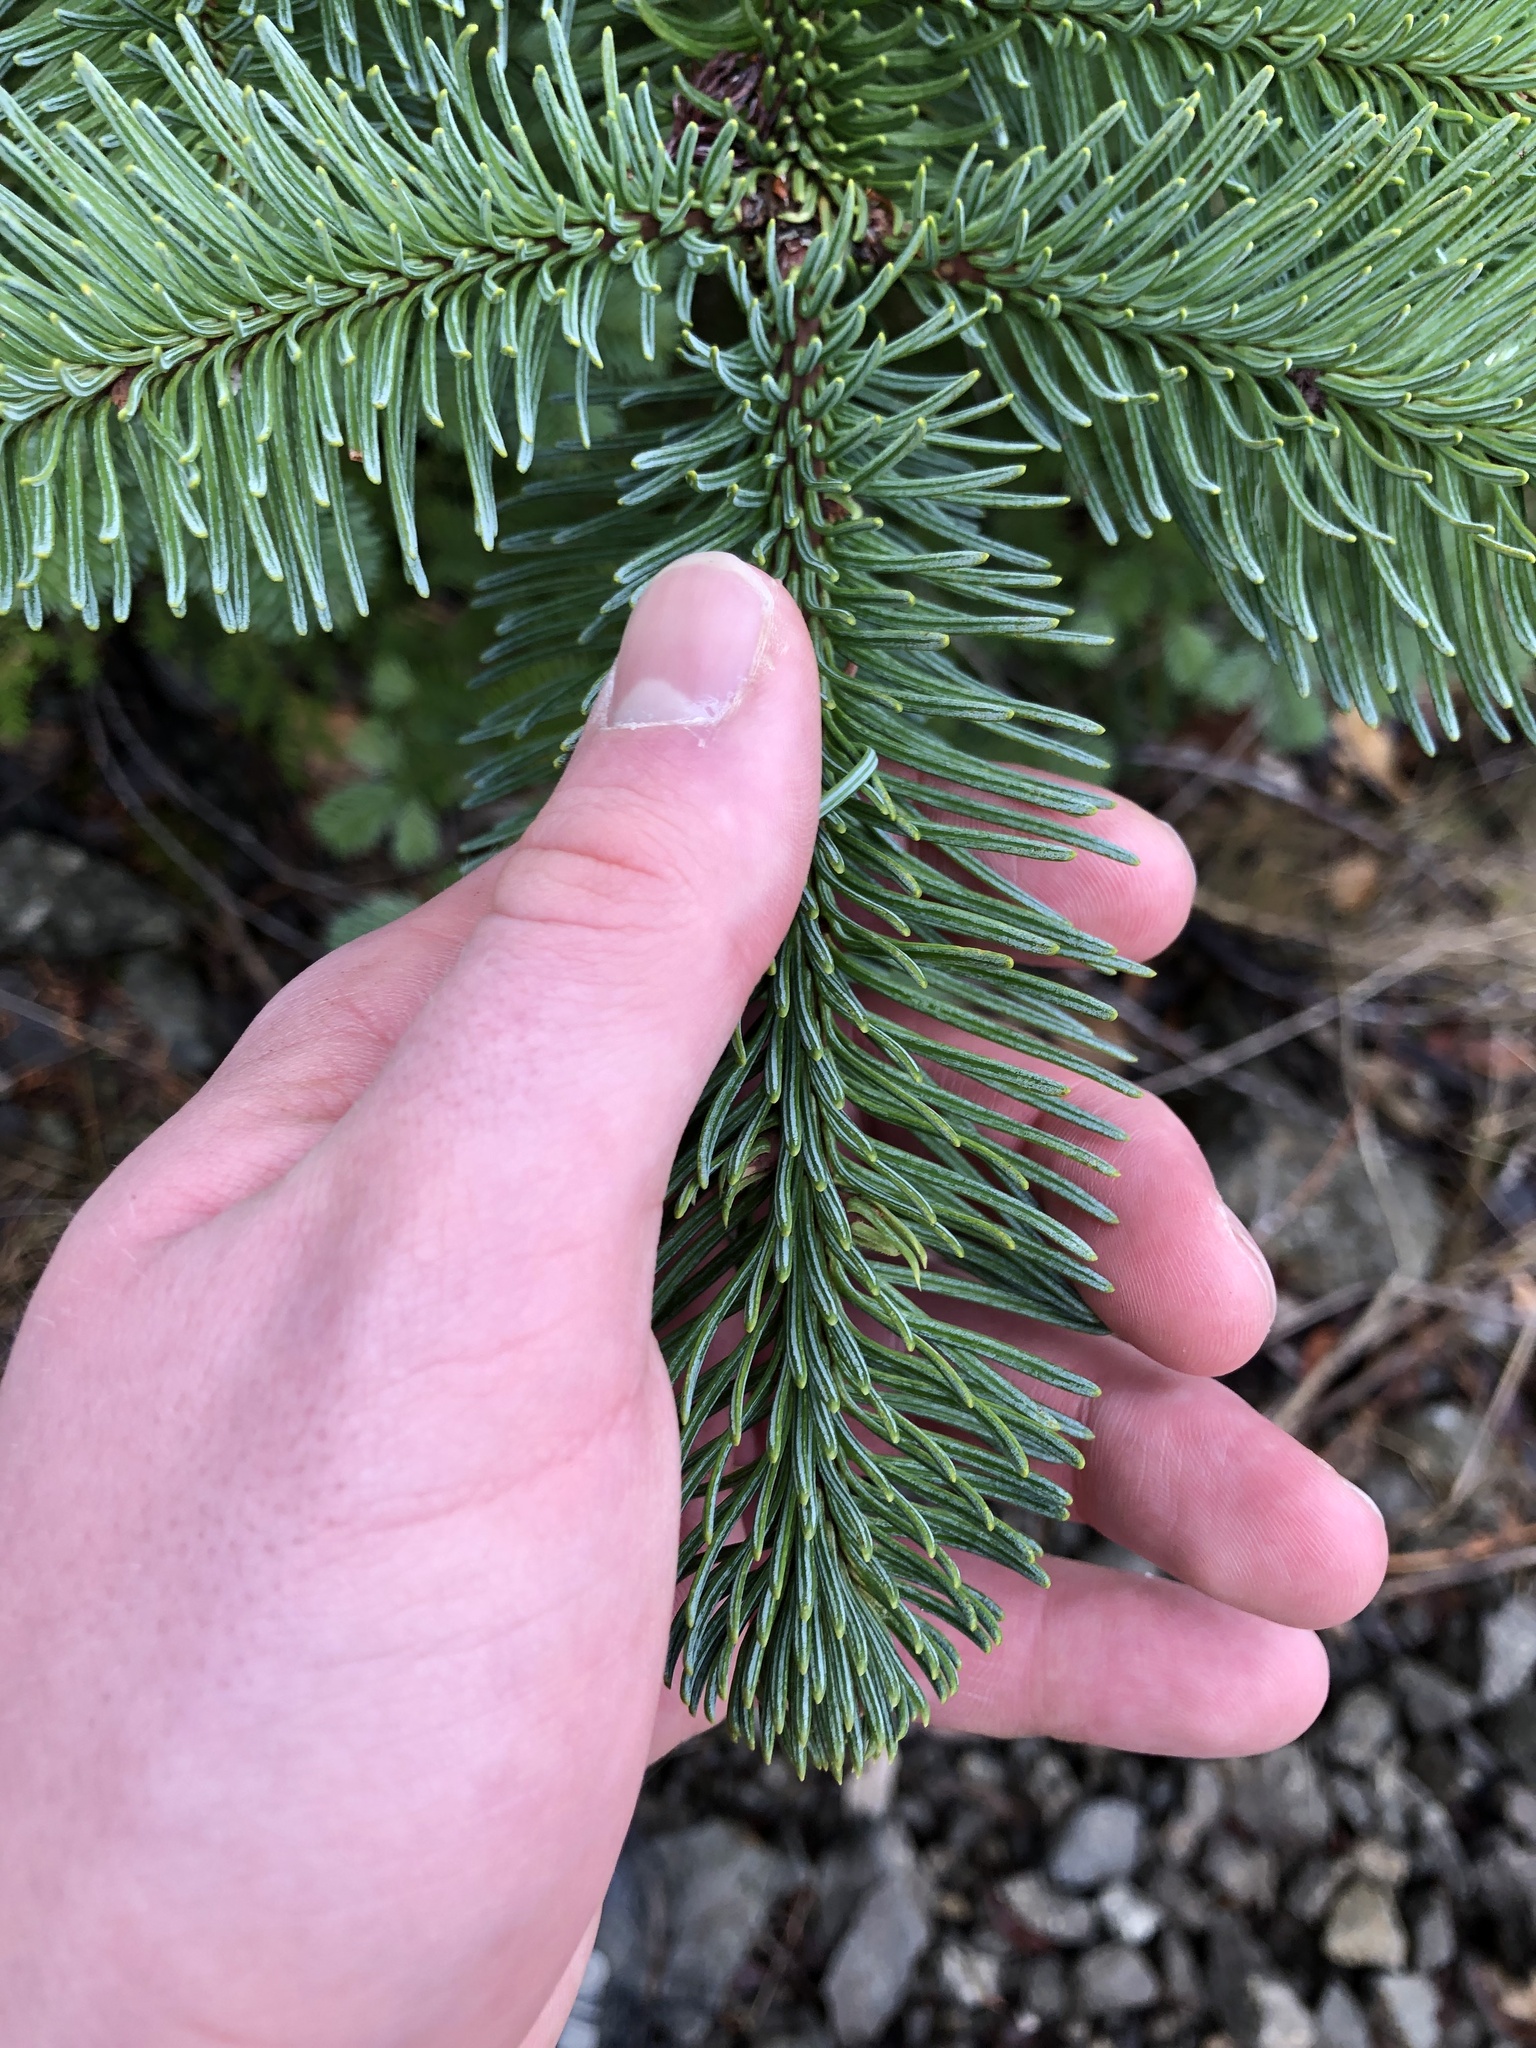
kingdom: Plantae
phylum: Tracheophyta
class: Pinopsida
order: Pinales
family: Pinaceae
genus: Abies
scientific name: Abies procera
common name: Noble fir
